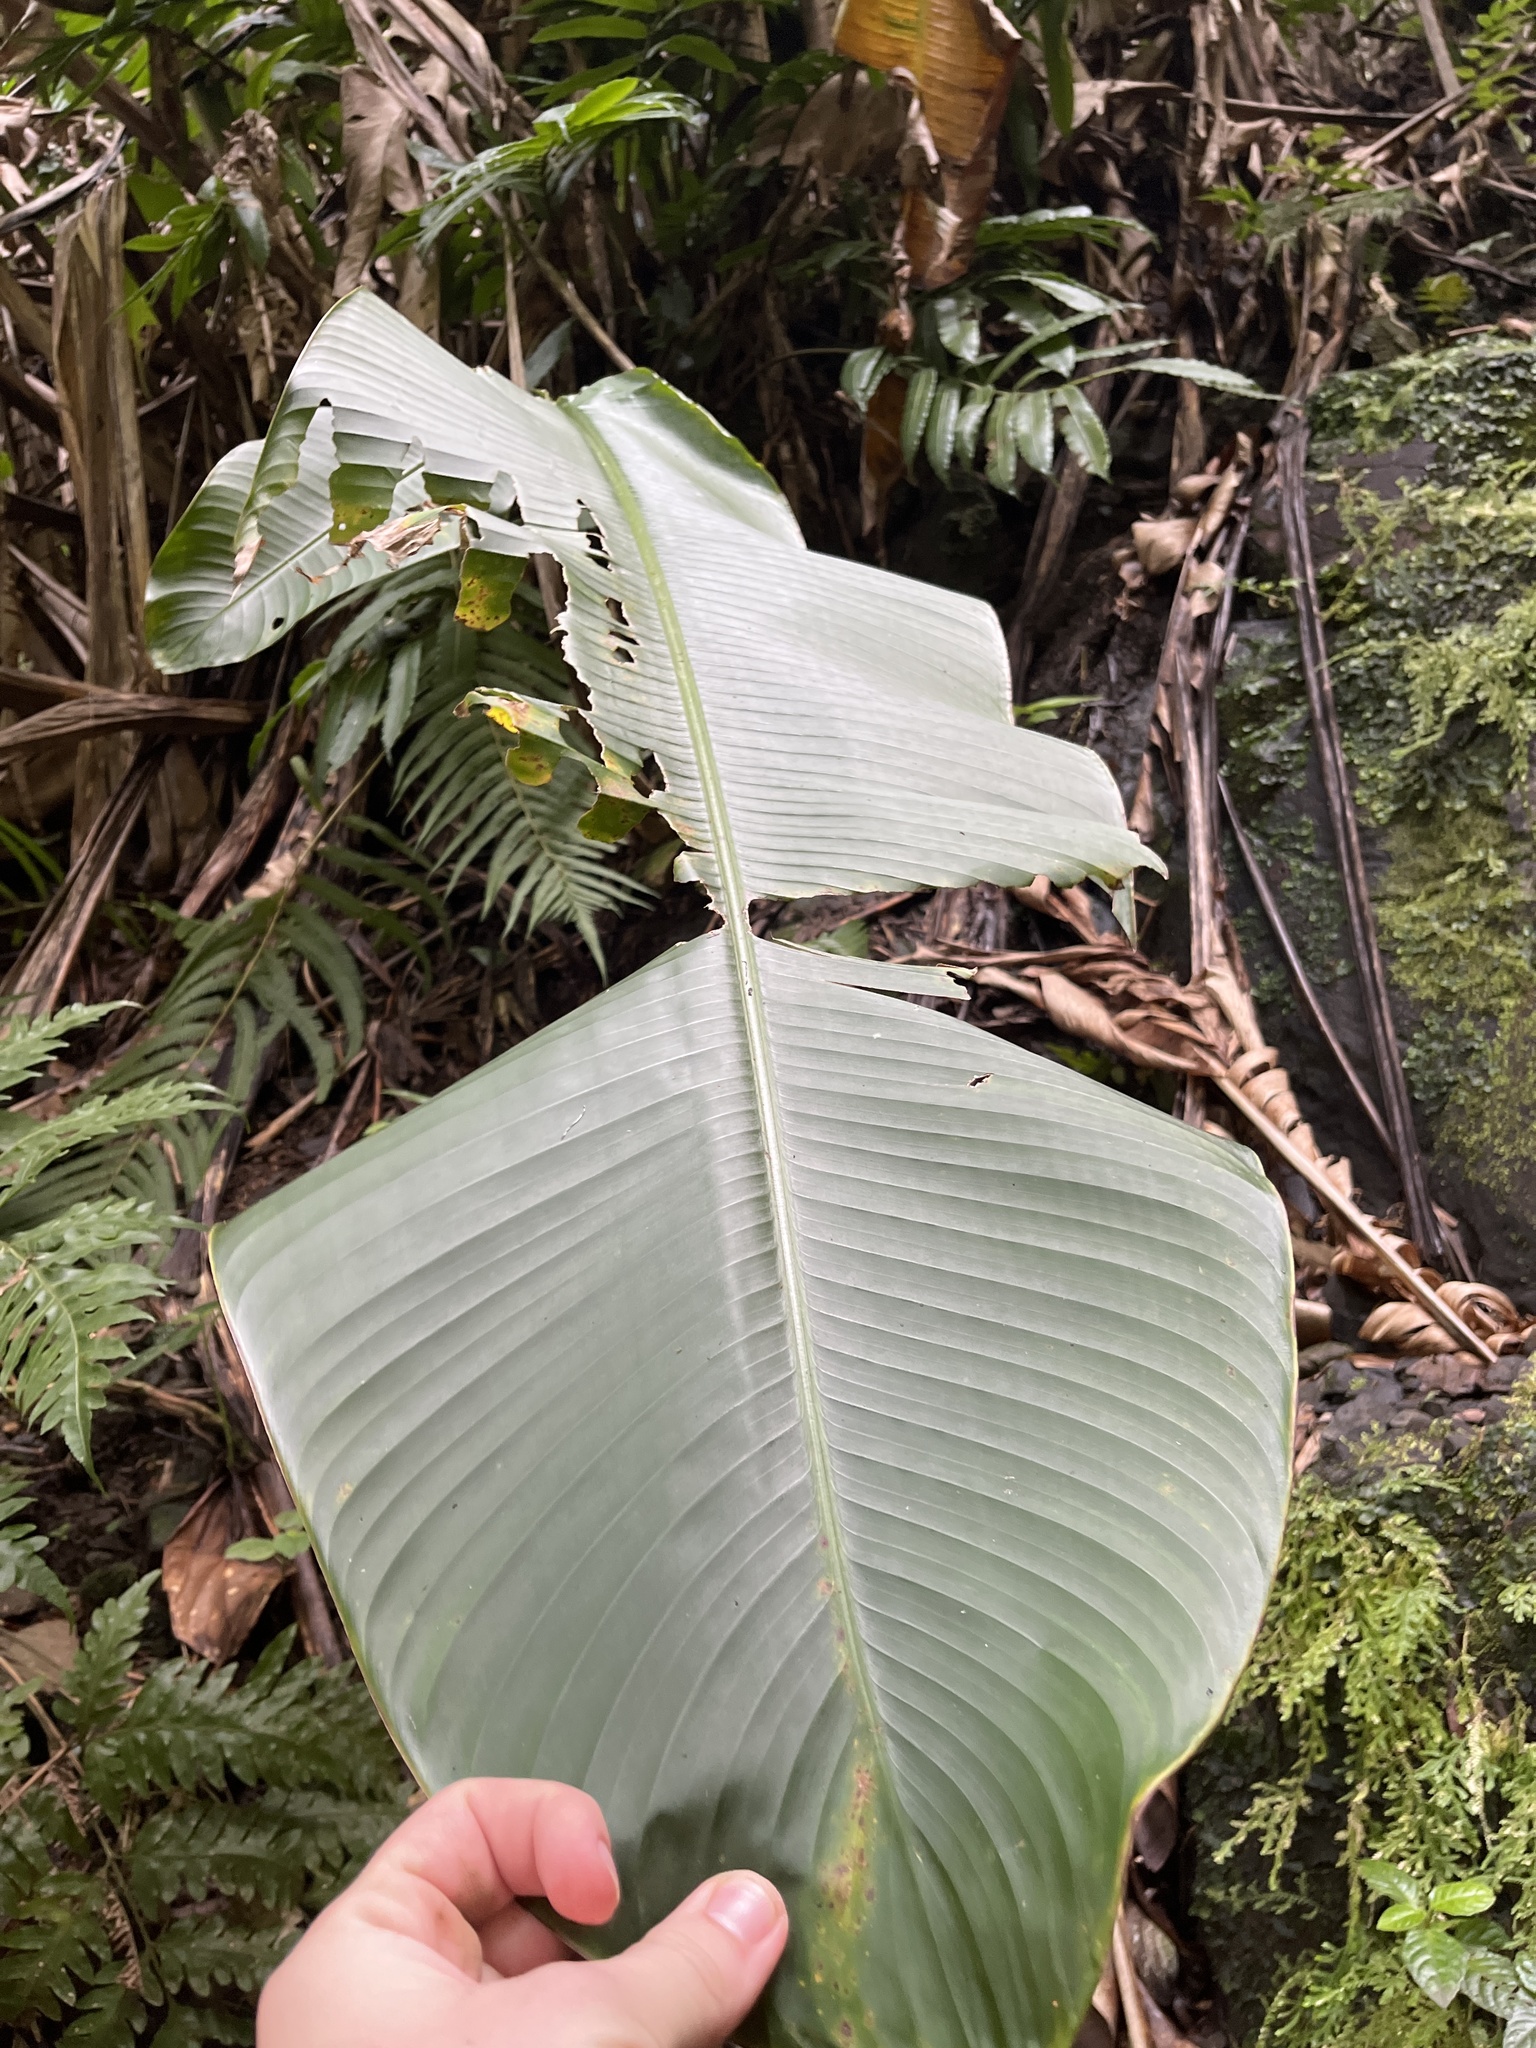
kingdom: Plantae
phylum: Tracheophyta
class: Liliopsida
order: Zingiberales
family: Marantaceae
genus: Calathea
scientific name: Calathea lutea
